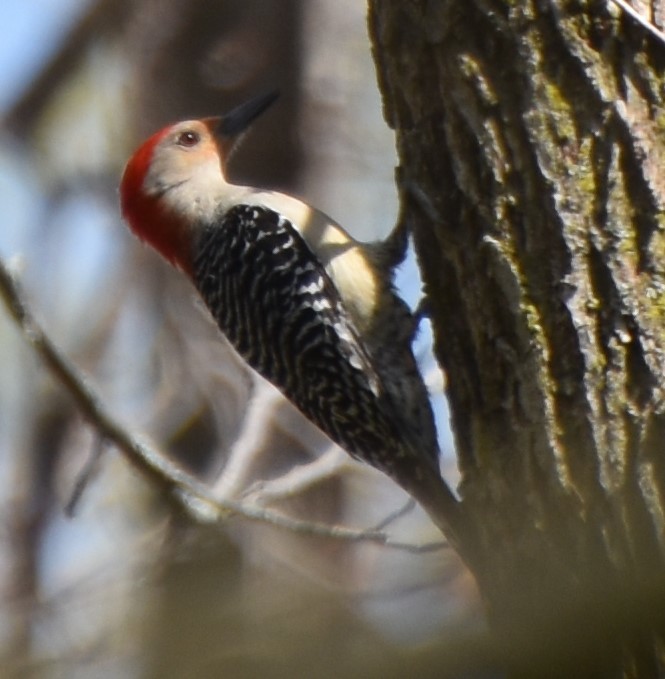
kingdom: Animalia
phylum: Chordata
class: Aves
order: Piciformes
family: Picidae
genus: Melanerpes
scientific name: Melanerpes carolinus
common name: Red-bellied woodpecker
